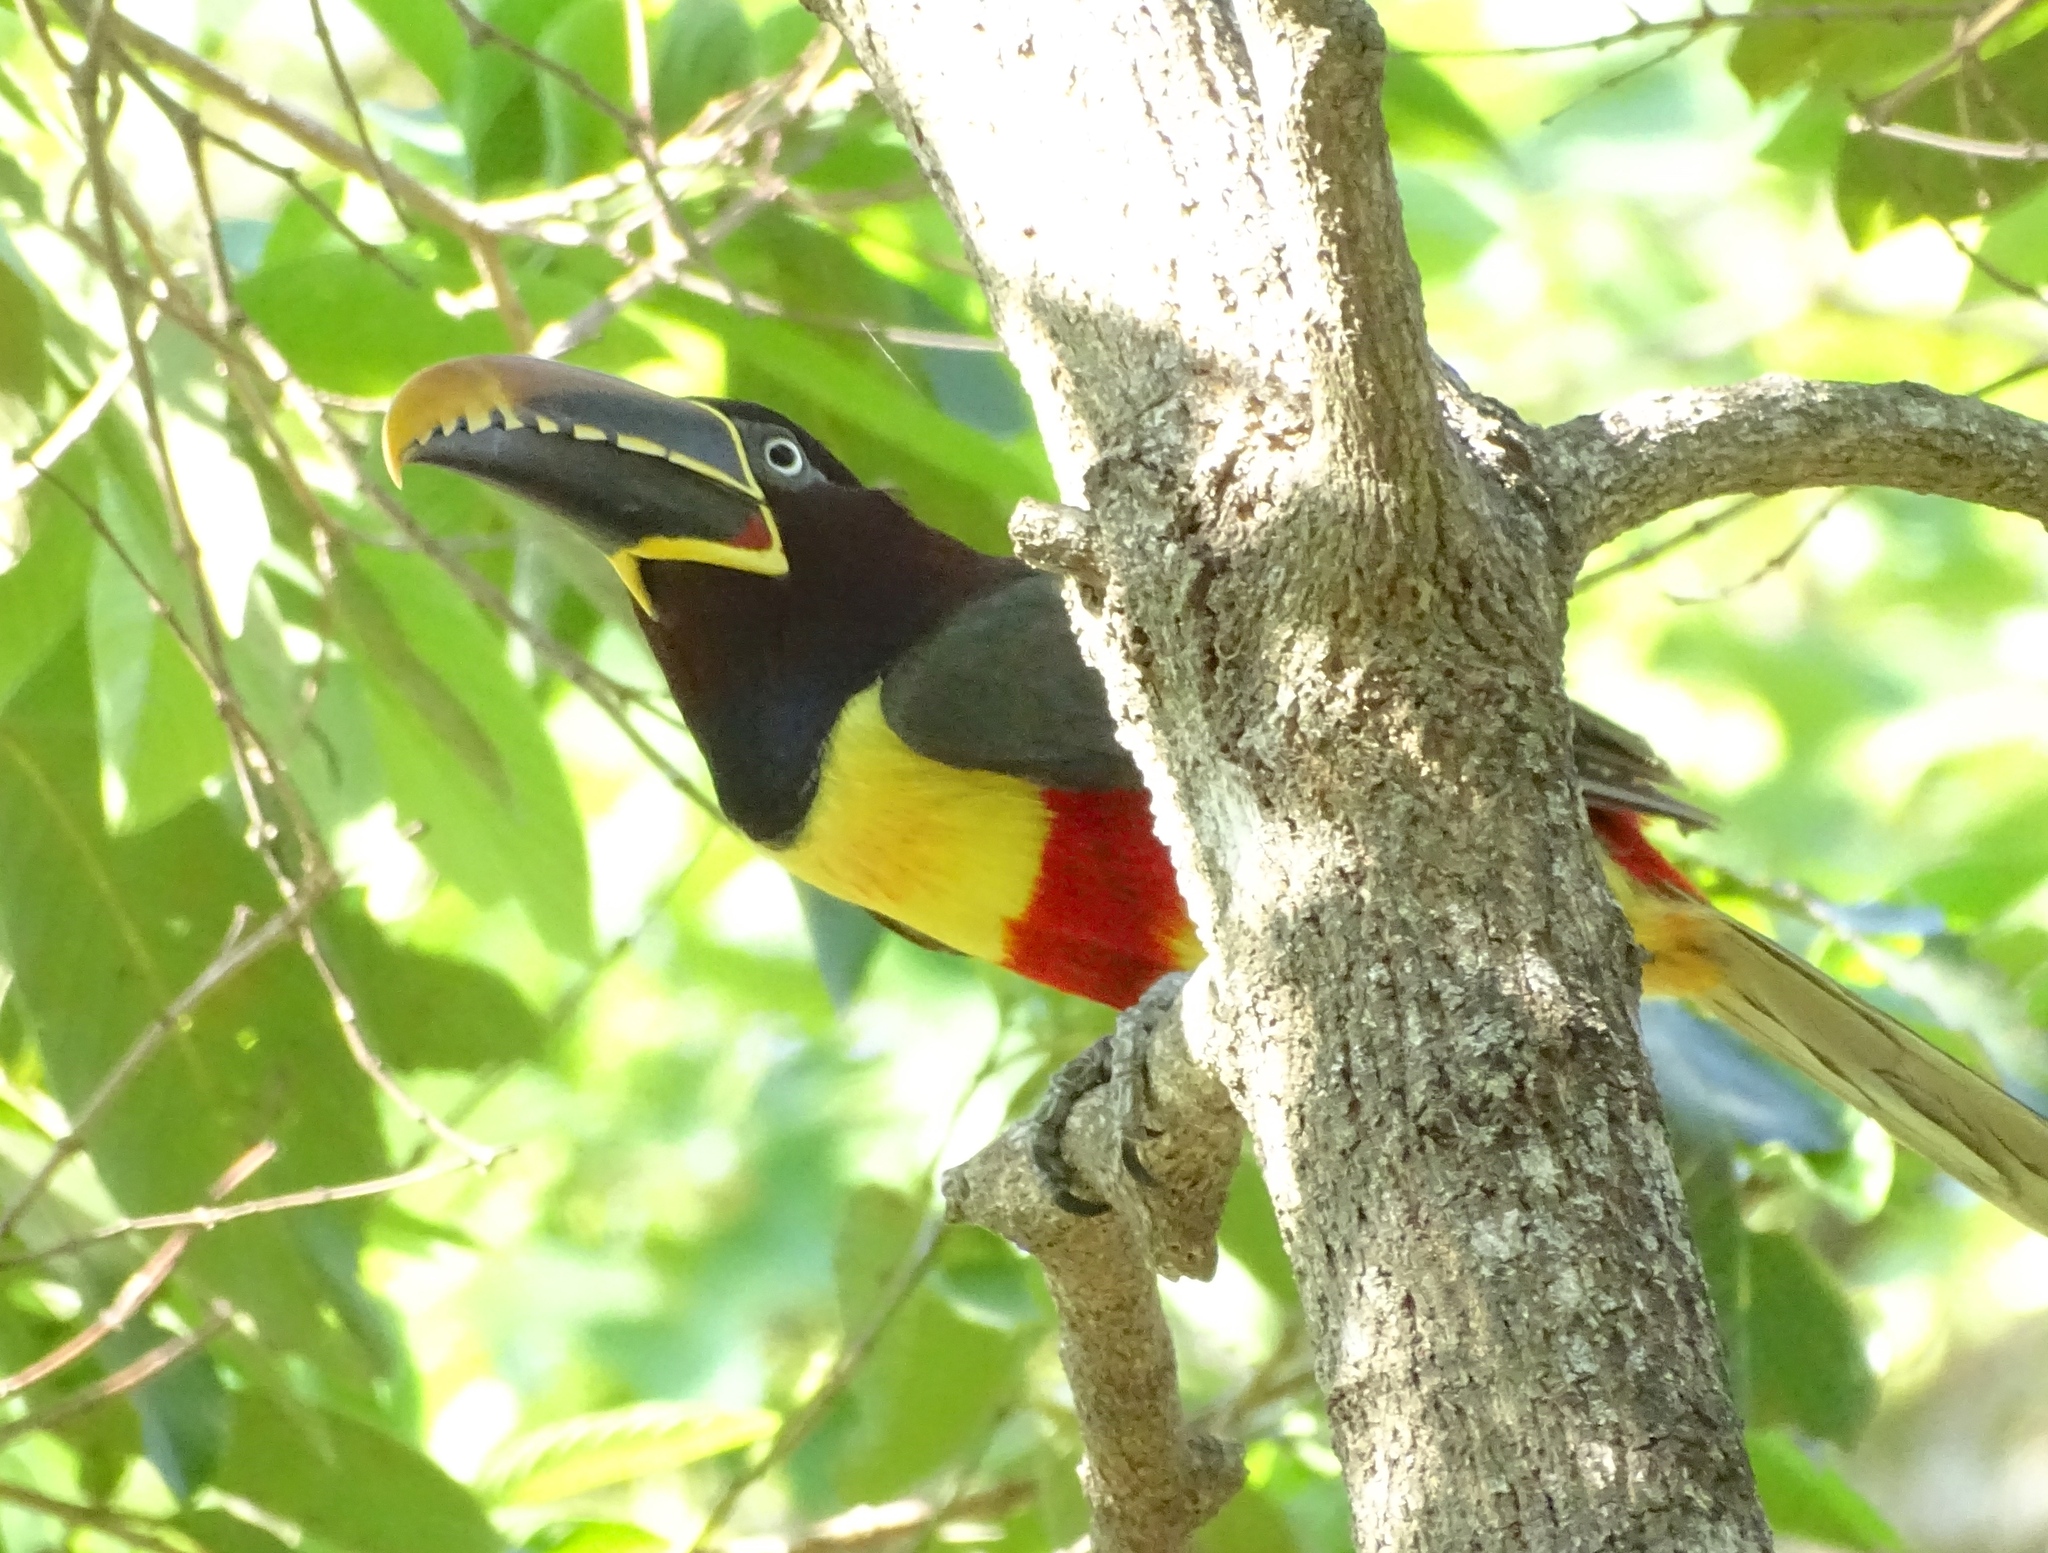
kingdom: Animalia
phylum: Chordata
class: Aves
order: Piciformes
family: Ramphastidae
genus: Pteroglossus
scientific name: Pteroglossus castanotis
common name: Chestnut-eared aracari
